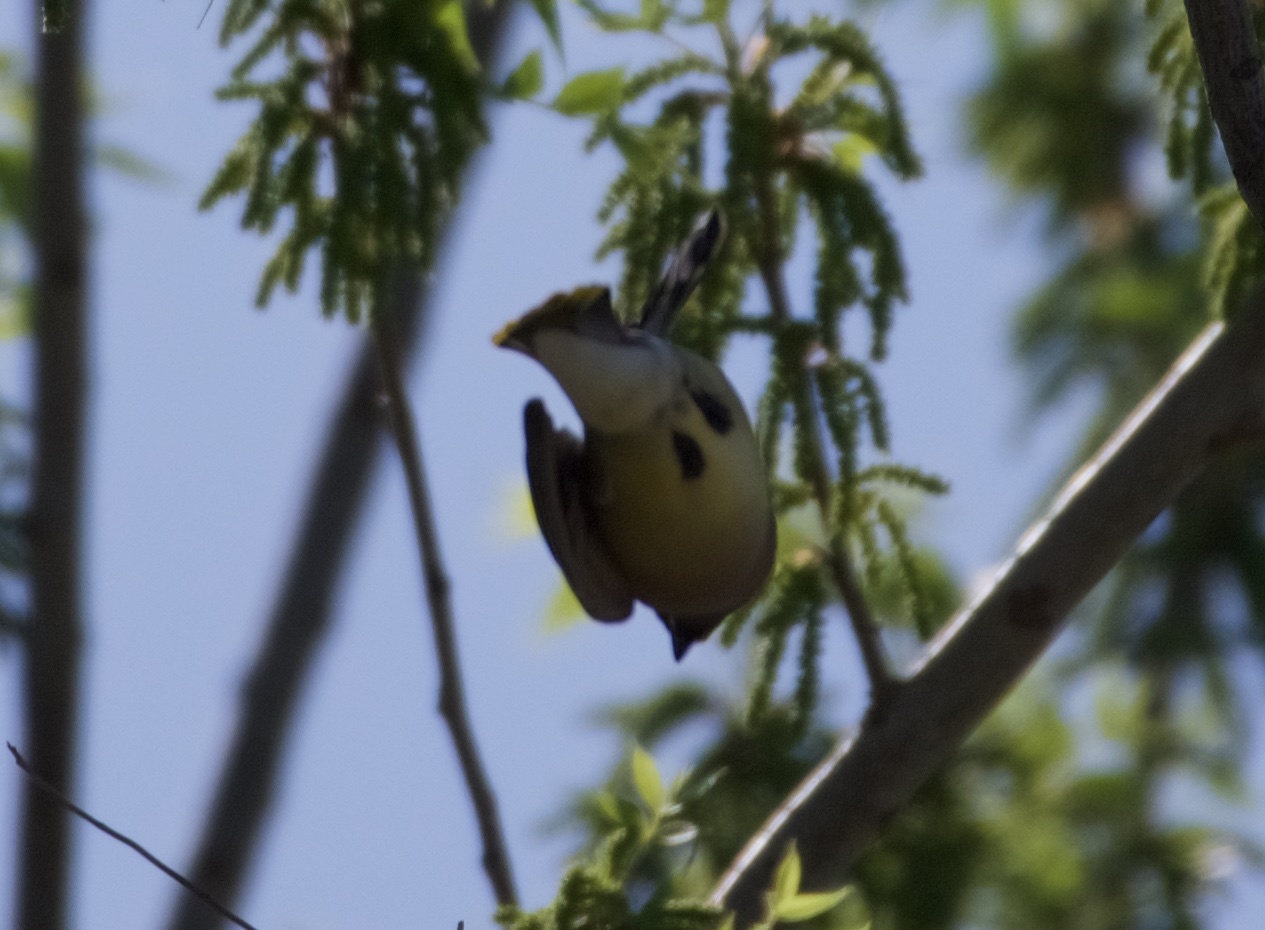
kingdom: Animalia
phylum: Chordata
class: Aves
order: Passeriformes
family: Bombycillidae
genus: Bombycilla
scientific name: Bombycilla cedrorum
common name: Cedar waxwing
